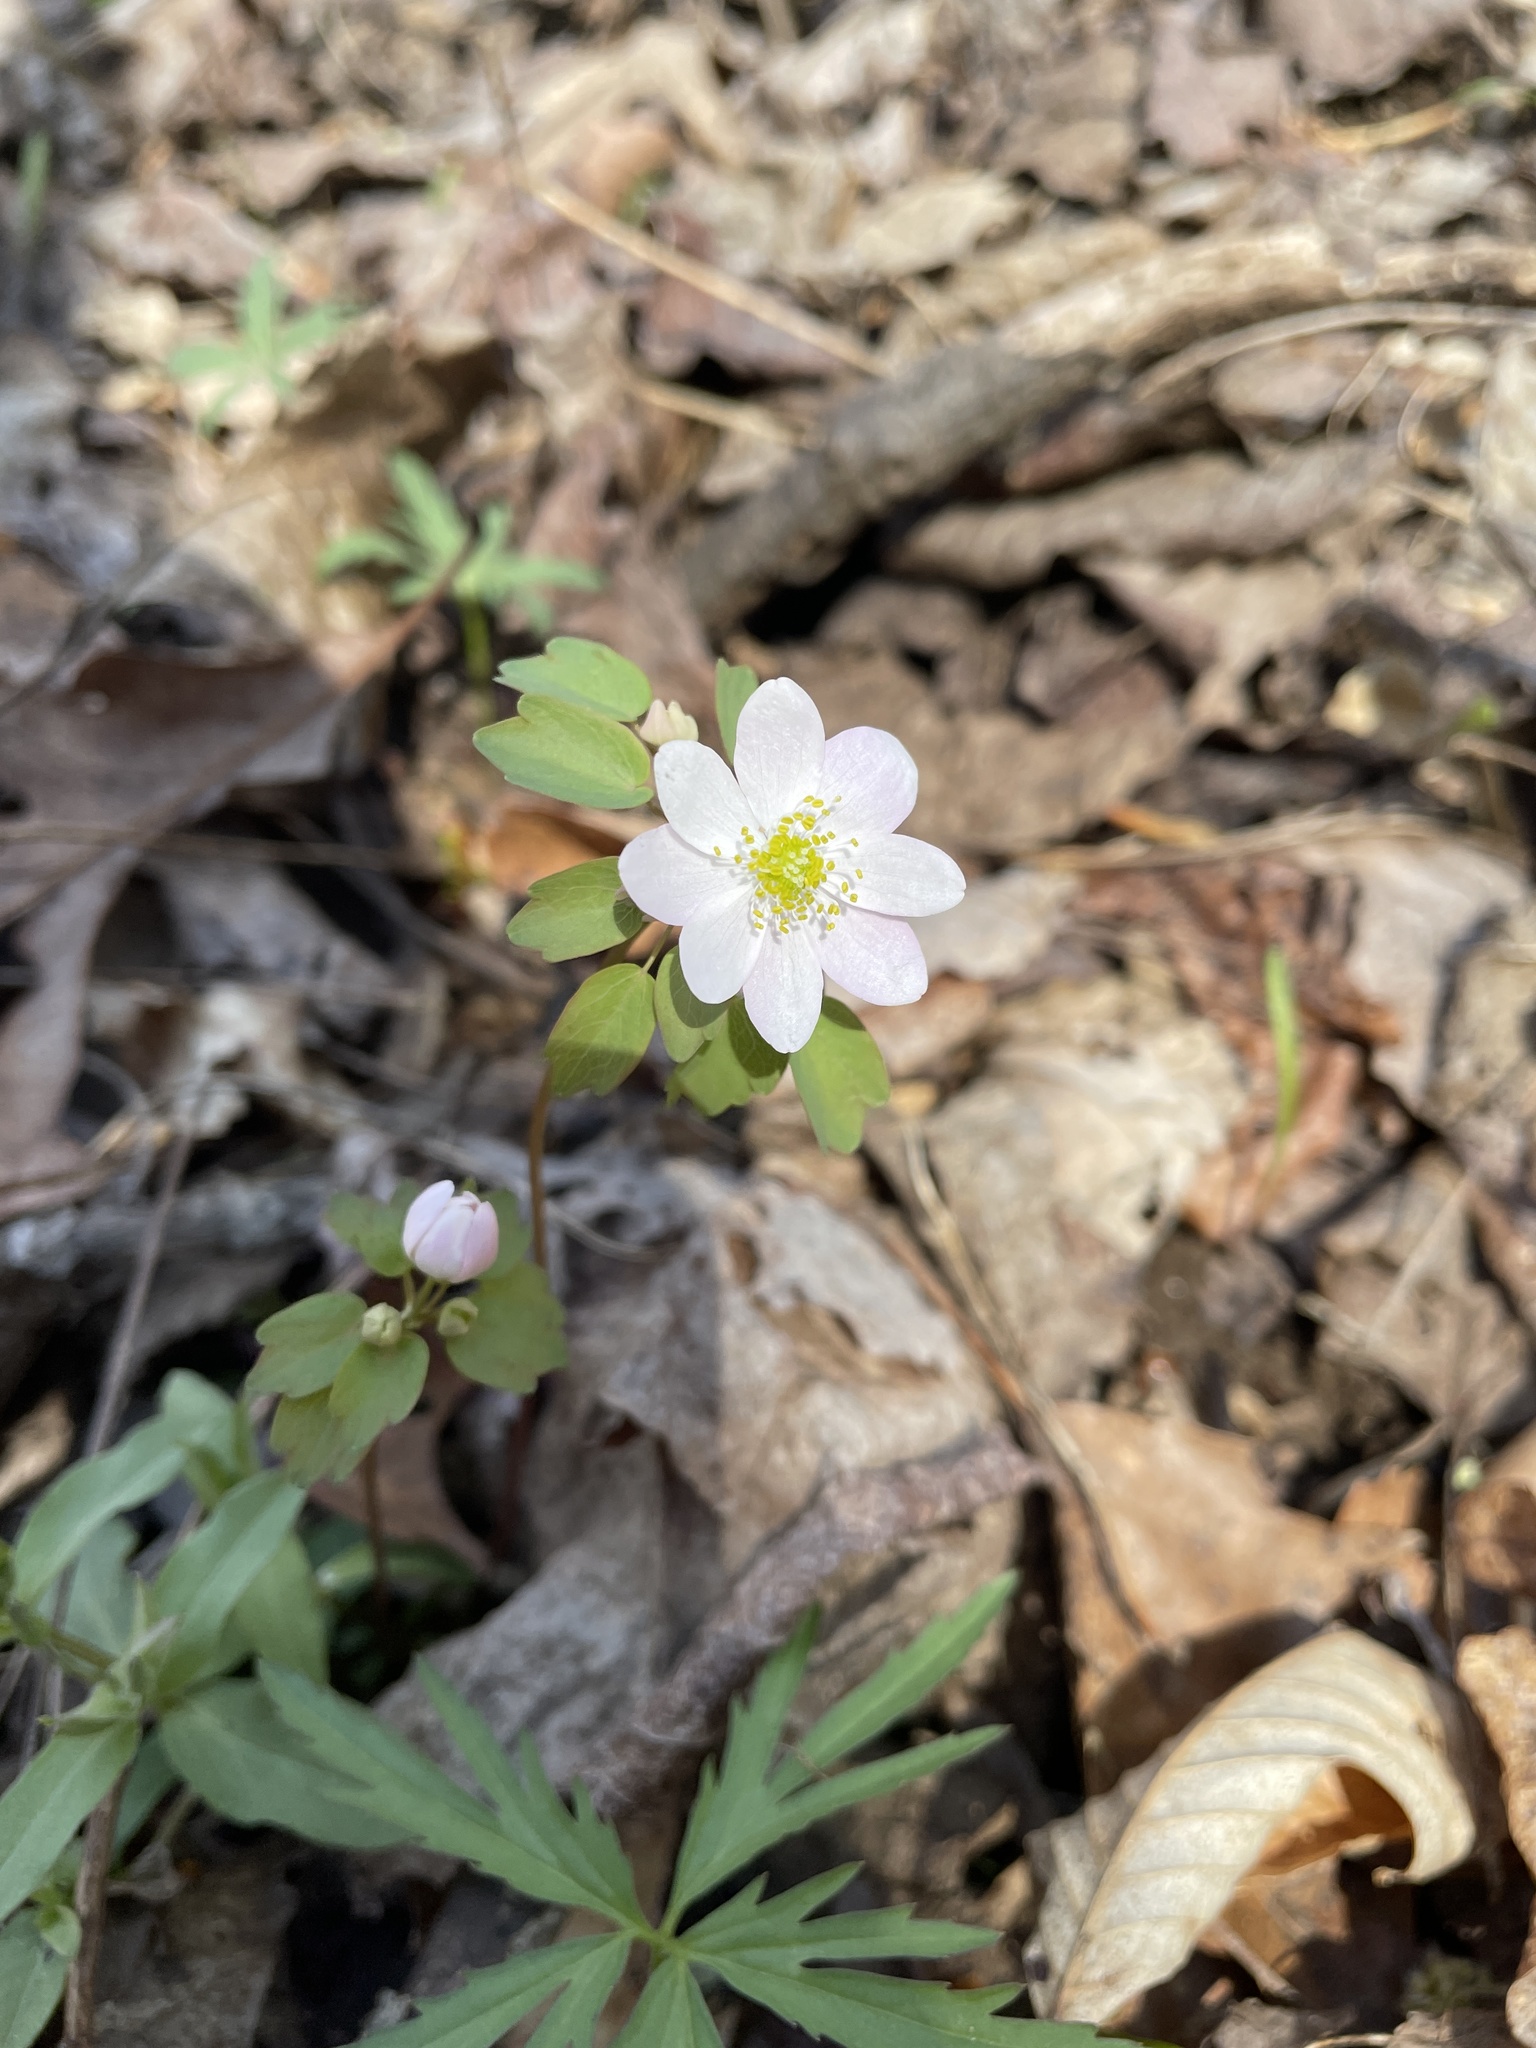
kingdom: Plantae
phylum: Tracheophyta
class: Magnoliopsida
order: Ranunculales
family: Ranunculaceae
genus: Thalictrum
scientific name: Thalictrum thalictroides
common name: Rue-anemone
